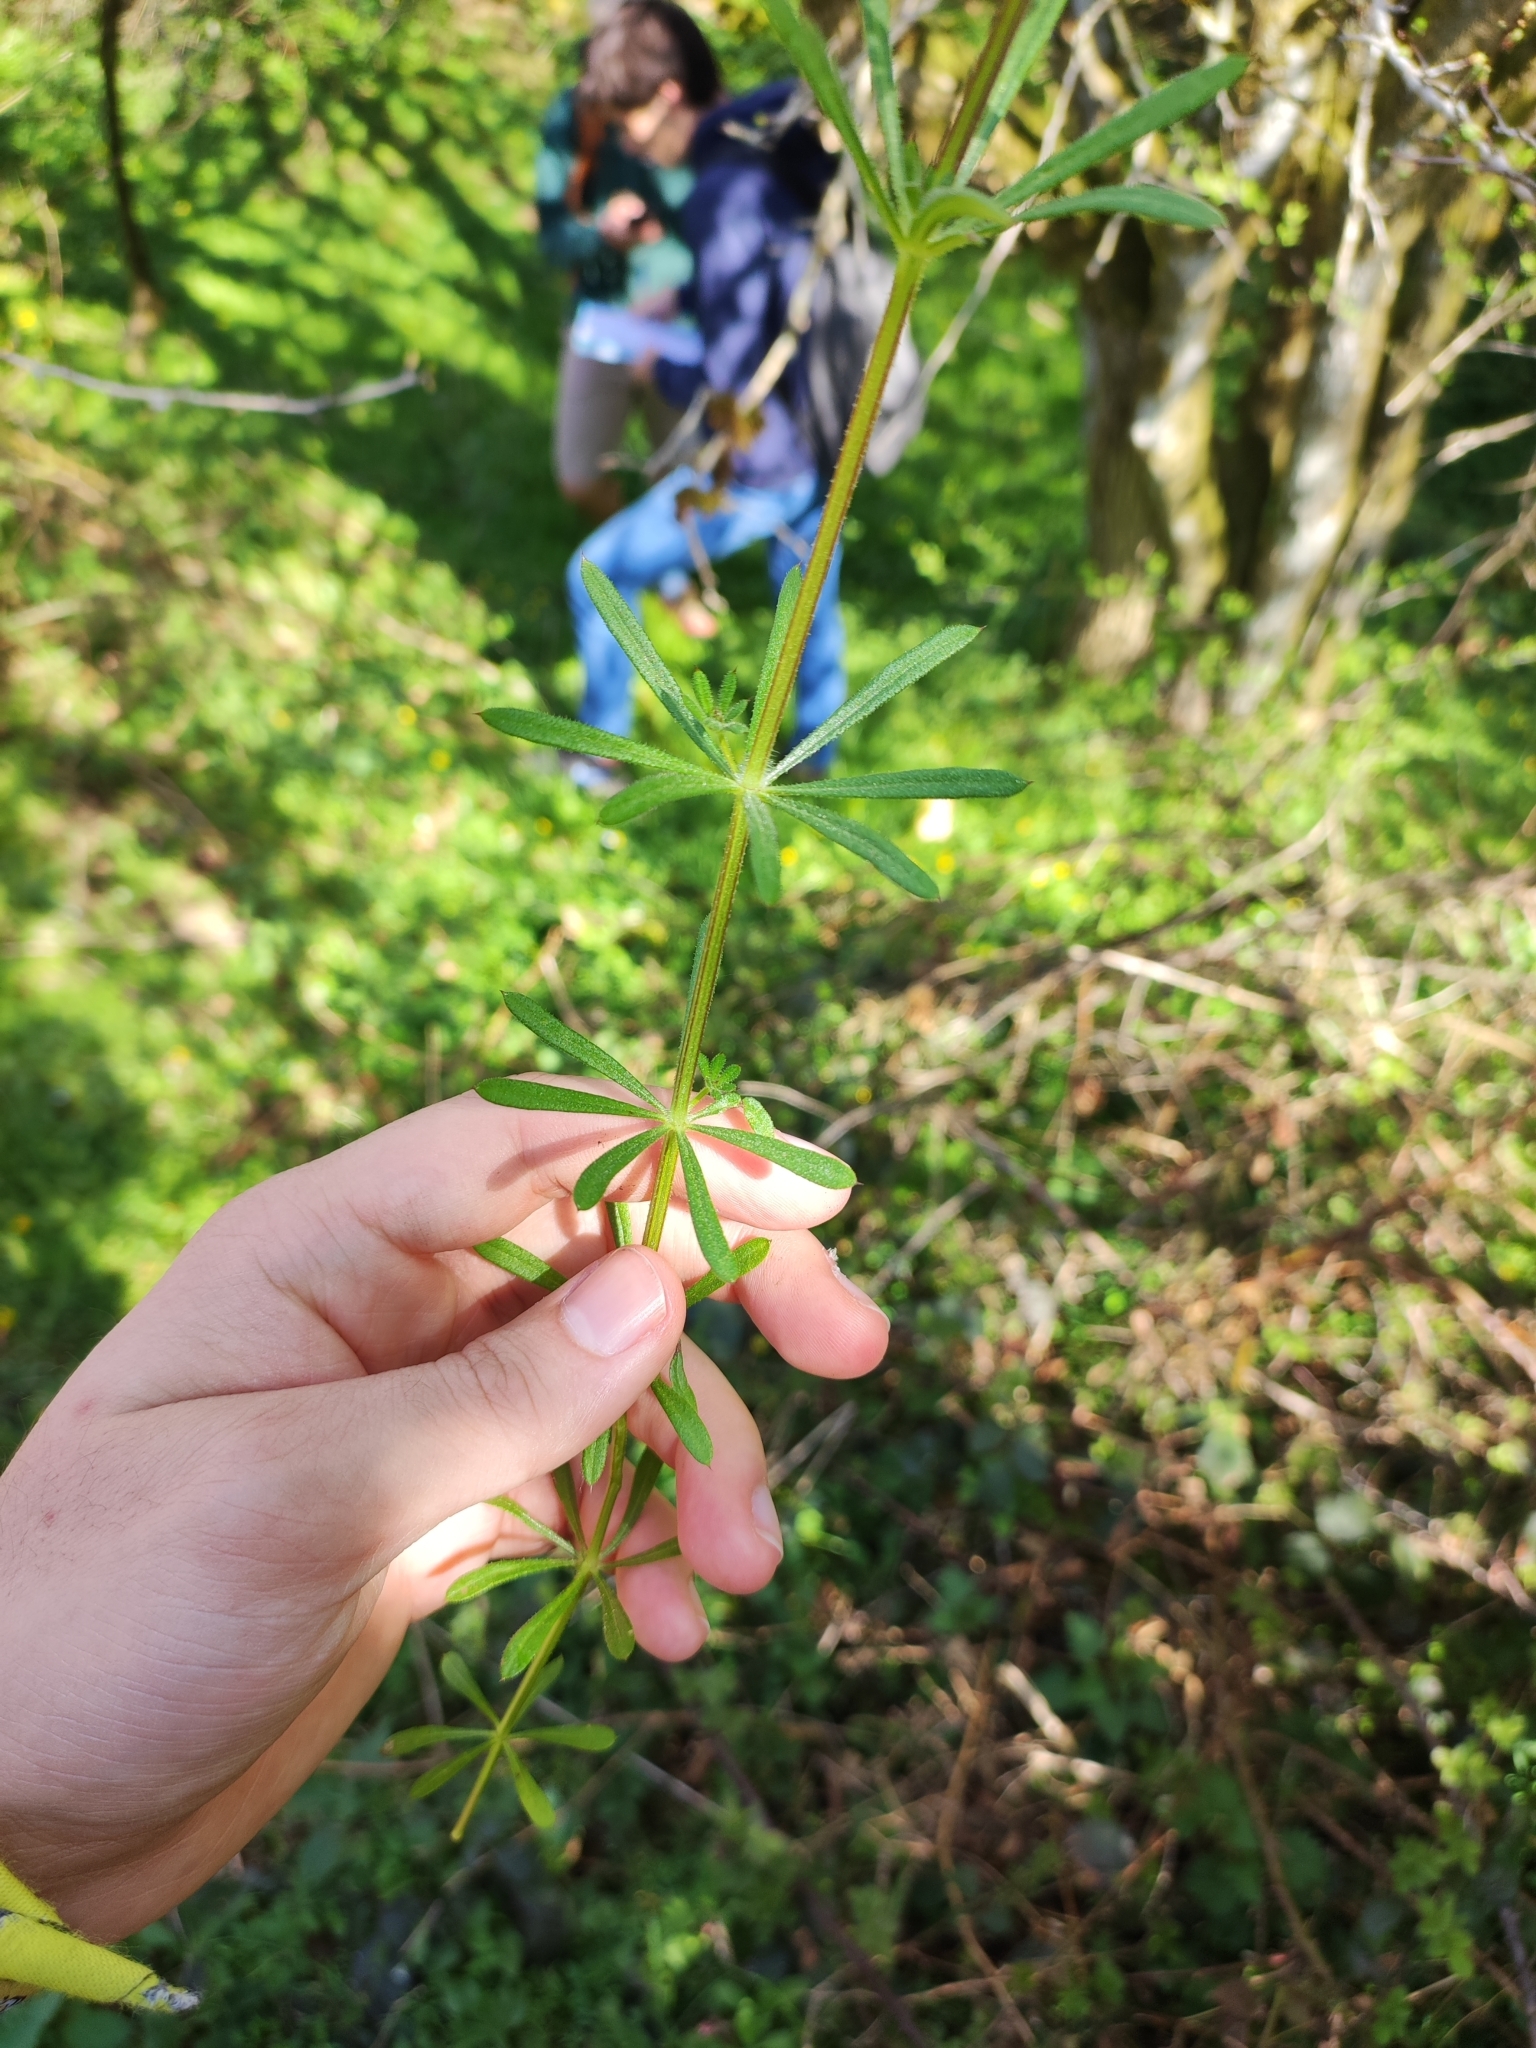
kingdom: Plantae
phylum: Tracheophyta
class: Magnoliopsida
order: Gentianales
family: Rubiaceae
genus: Galium
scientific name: Galium aparine
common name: Cleavers
